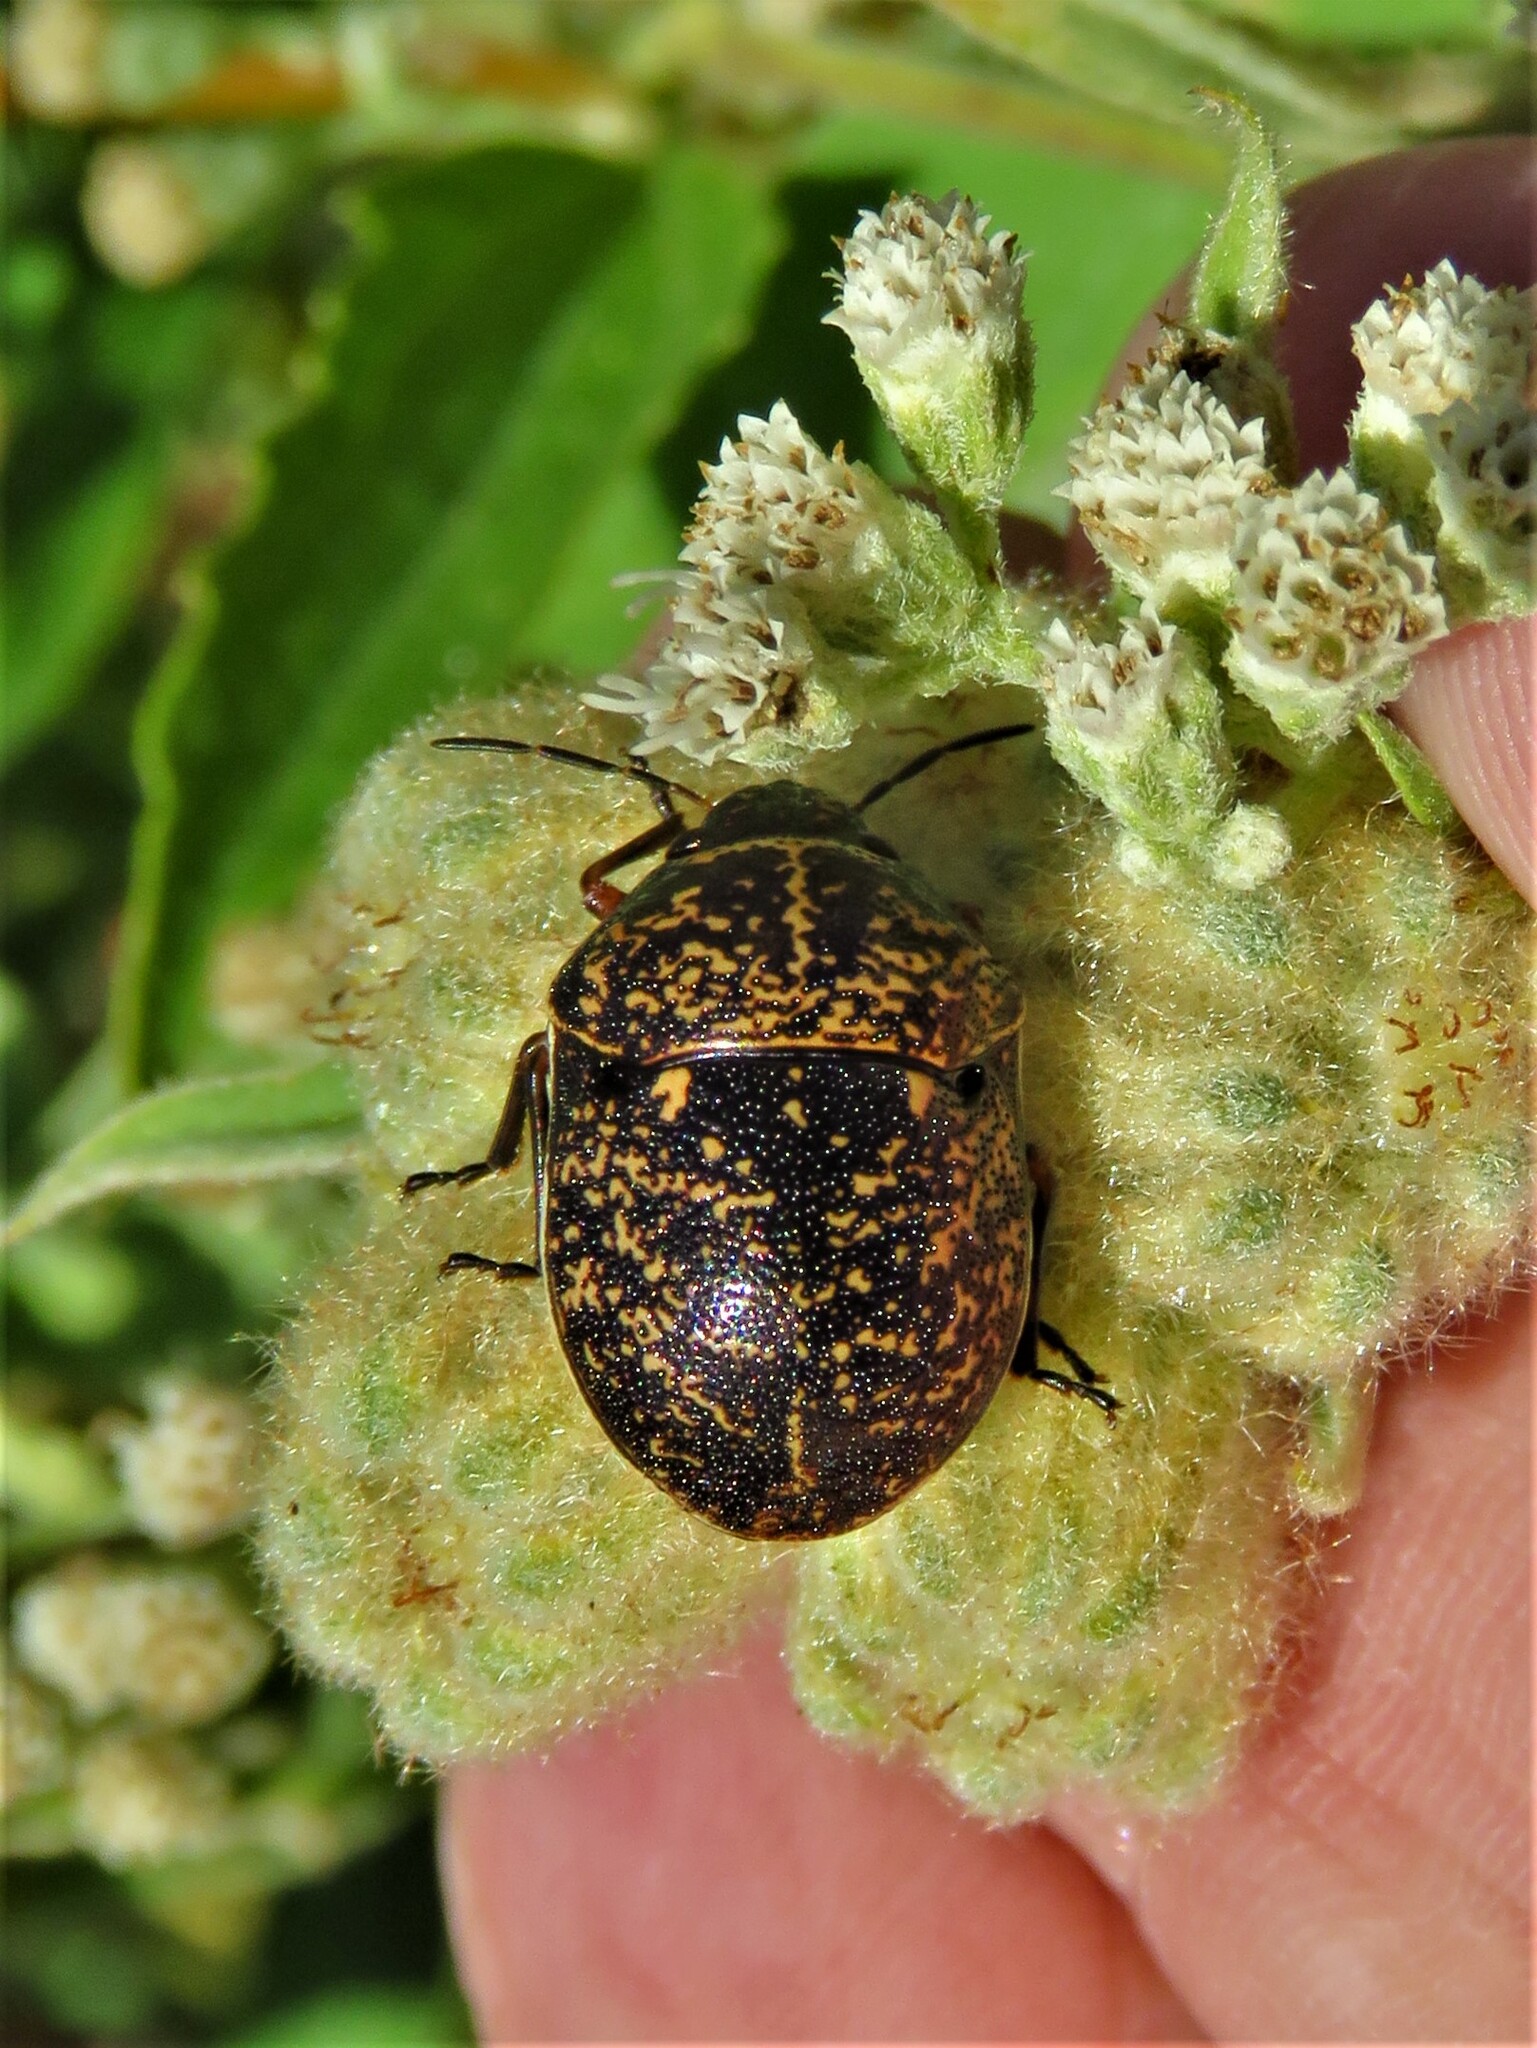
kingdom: Animalia
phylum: Arthropoda
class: Insecta
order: Hemiptera
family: Scutelleridae
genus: Orsilochides
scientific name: Orsilochides guttata
